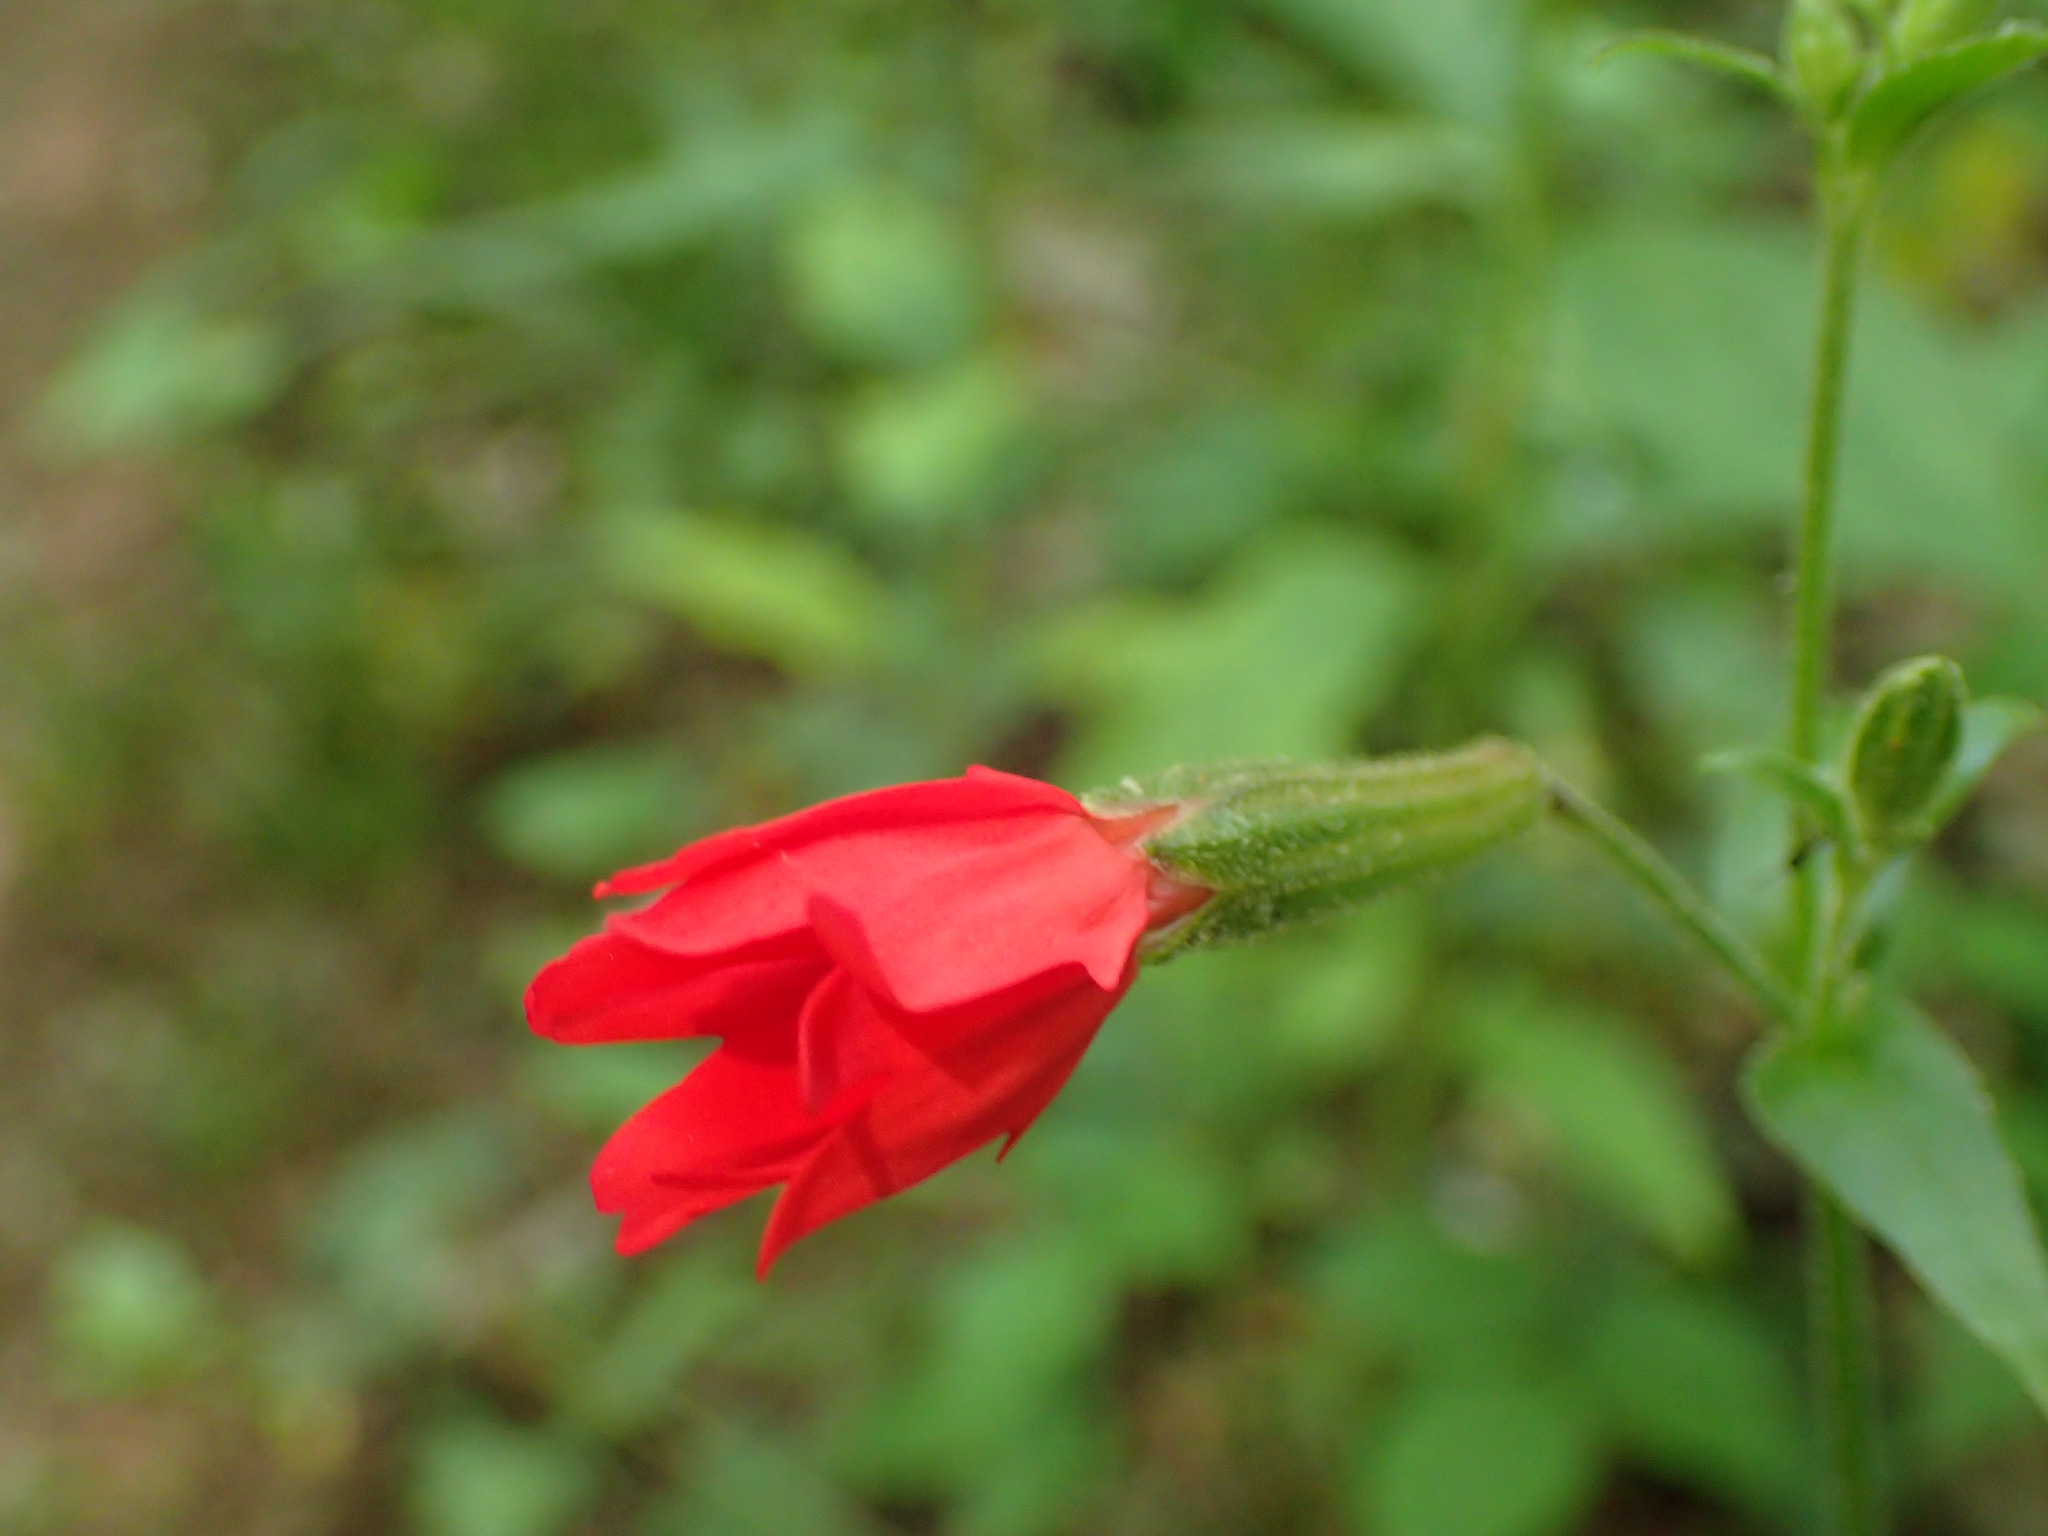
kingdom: Plantae
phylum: Tracheophyta
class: Magnoliopsida
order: Caryophyllales
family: Caryophyllaceae
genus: Silene
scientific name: Silene virginica
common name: Fire-pink
